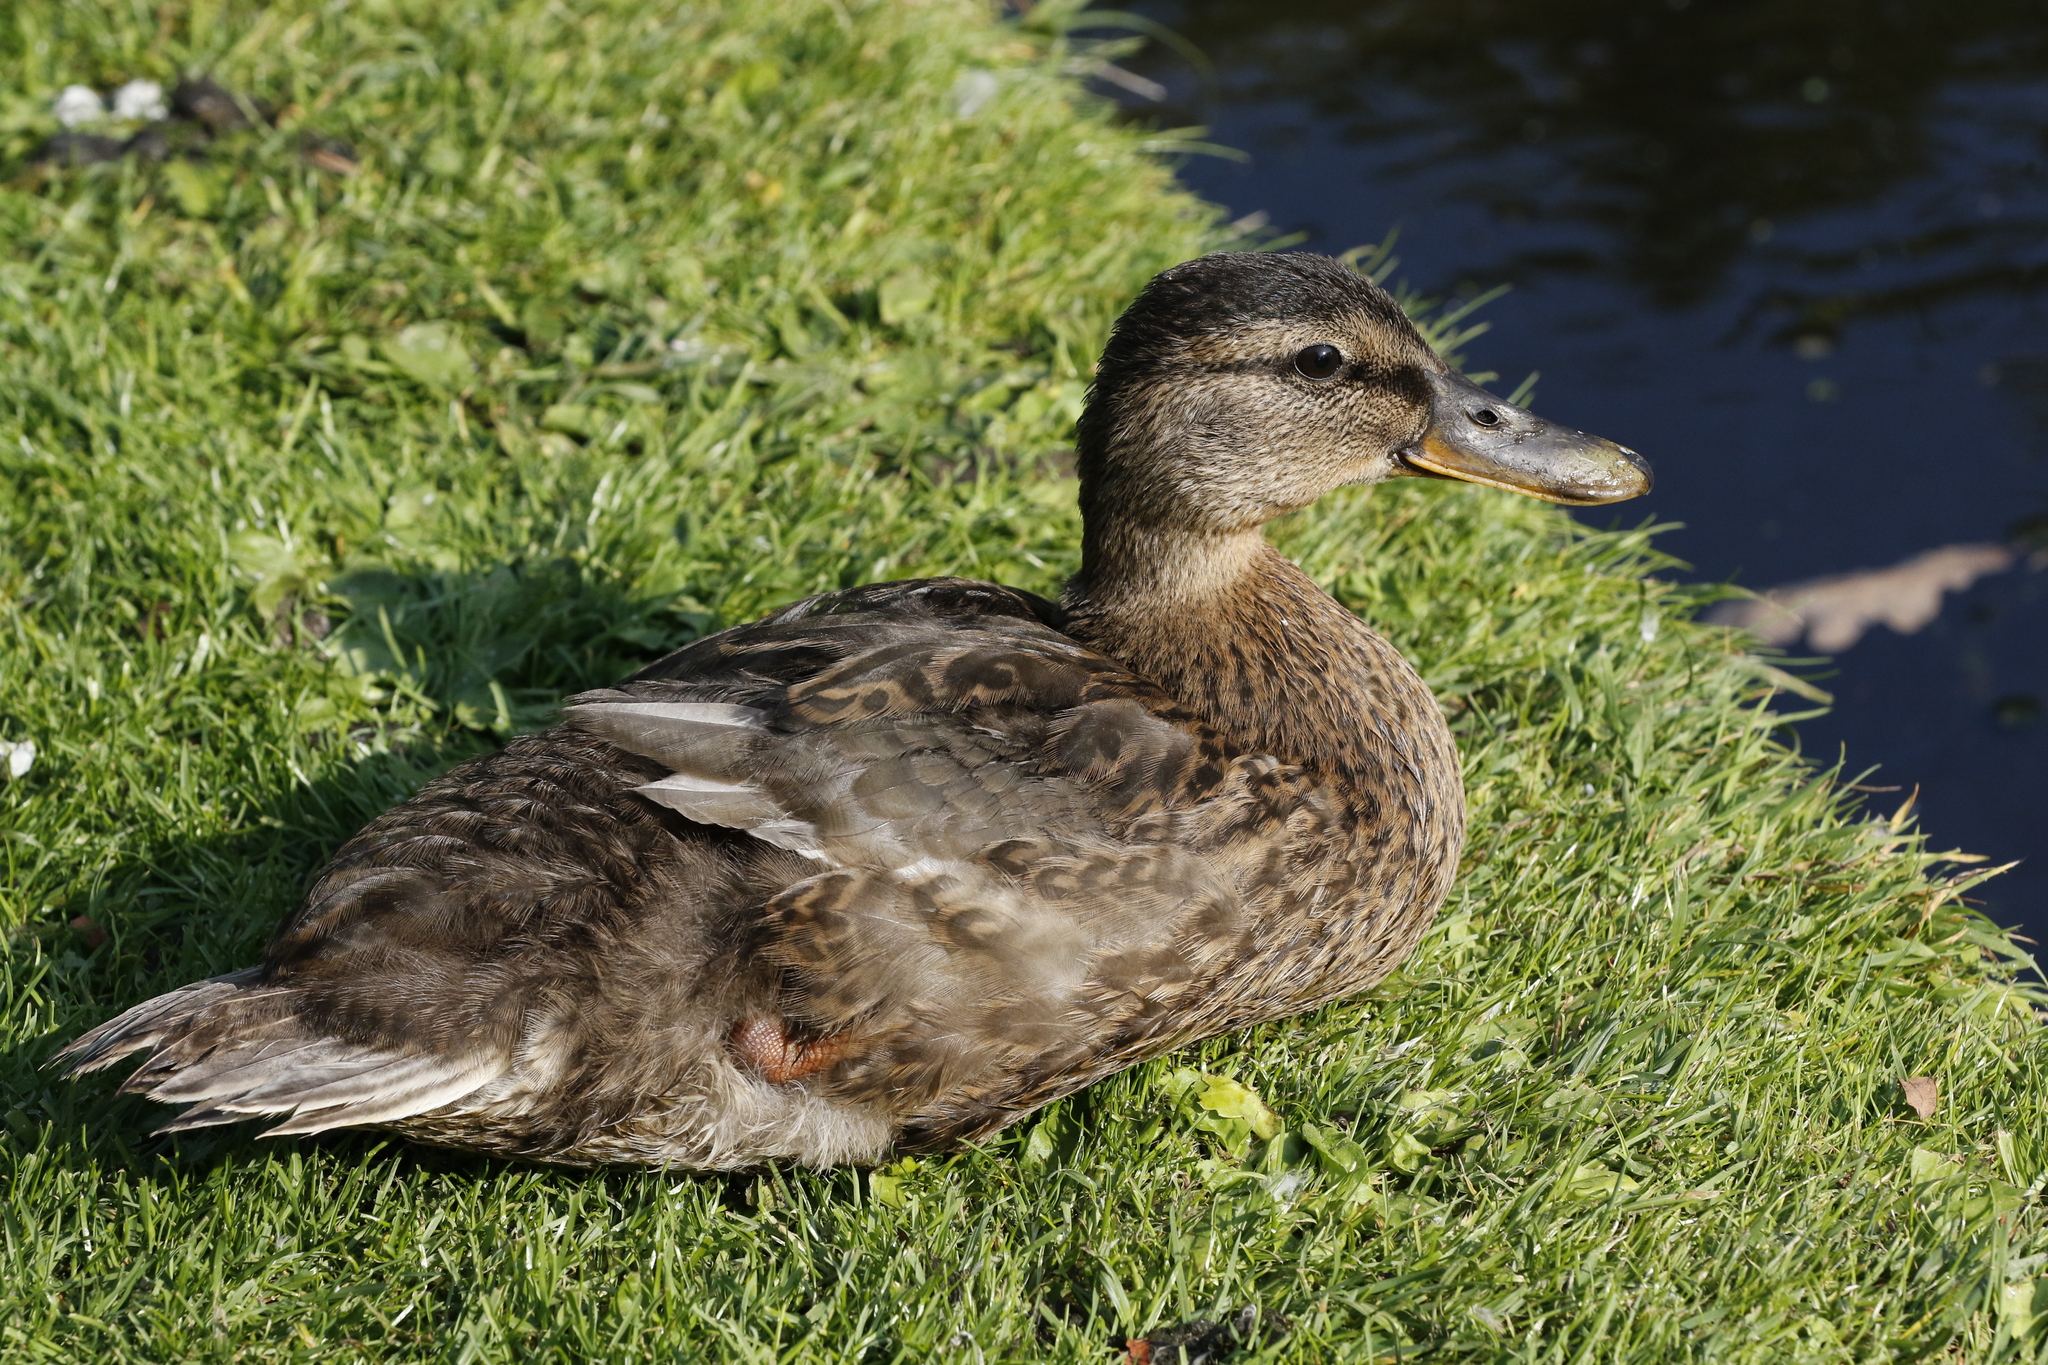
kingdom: Animalia
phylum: Chordata
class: Aves
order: Anseriformes
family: Anatidae
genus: Anas
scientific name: Anas platyrhynchos
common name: Mallard
